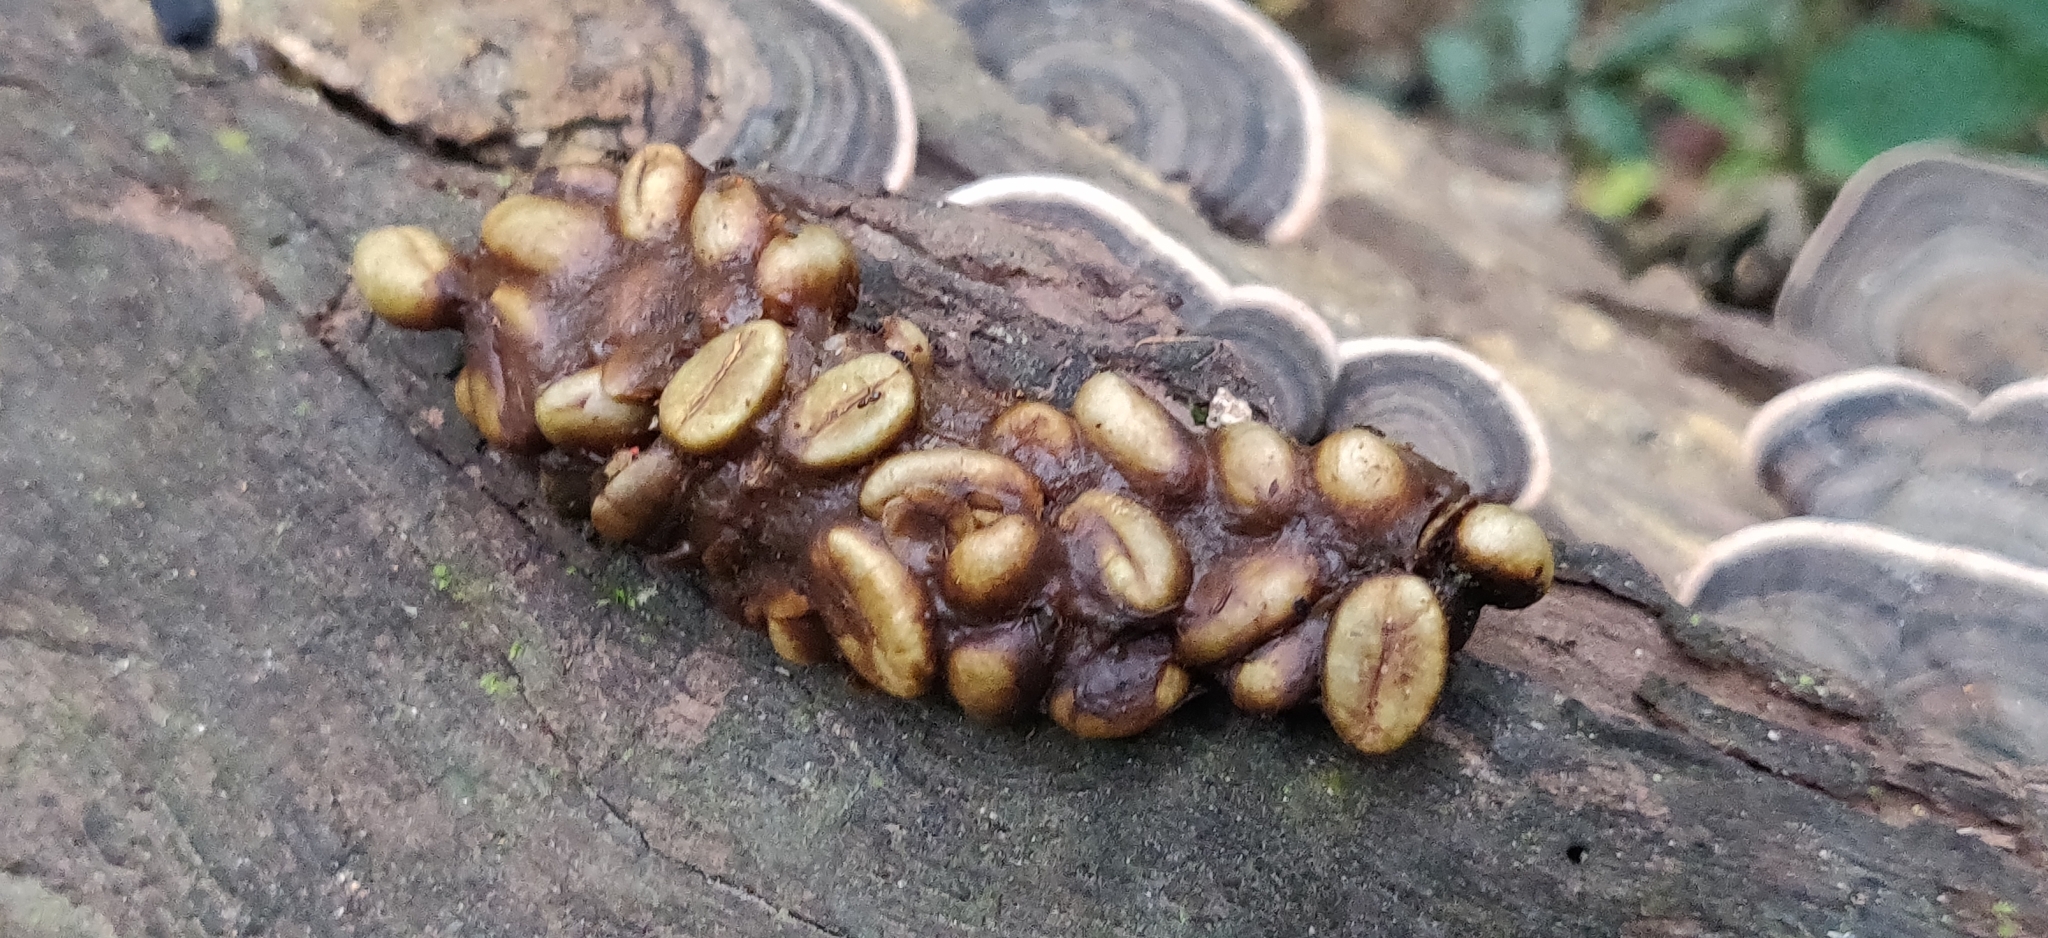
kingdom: Animalia
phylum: Chordata
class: Mammalia
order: Carnivora
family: Viverridae
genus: Paradoxurus
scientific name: Paradoxurus jerdoni
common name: Jerdon's palm civet
